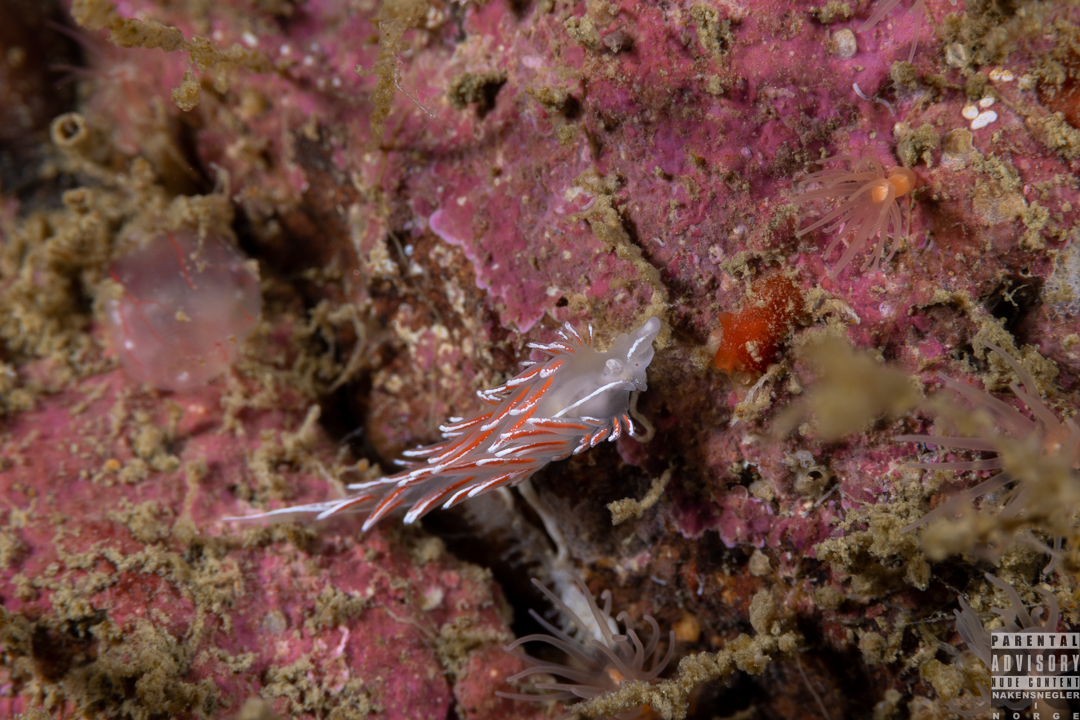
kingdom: Animalia
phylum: Mollusca
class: Gastropoda
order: Nudibranchia
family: Coryphellidae
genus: Coryphella
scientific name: Coryphella lineata
